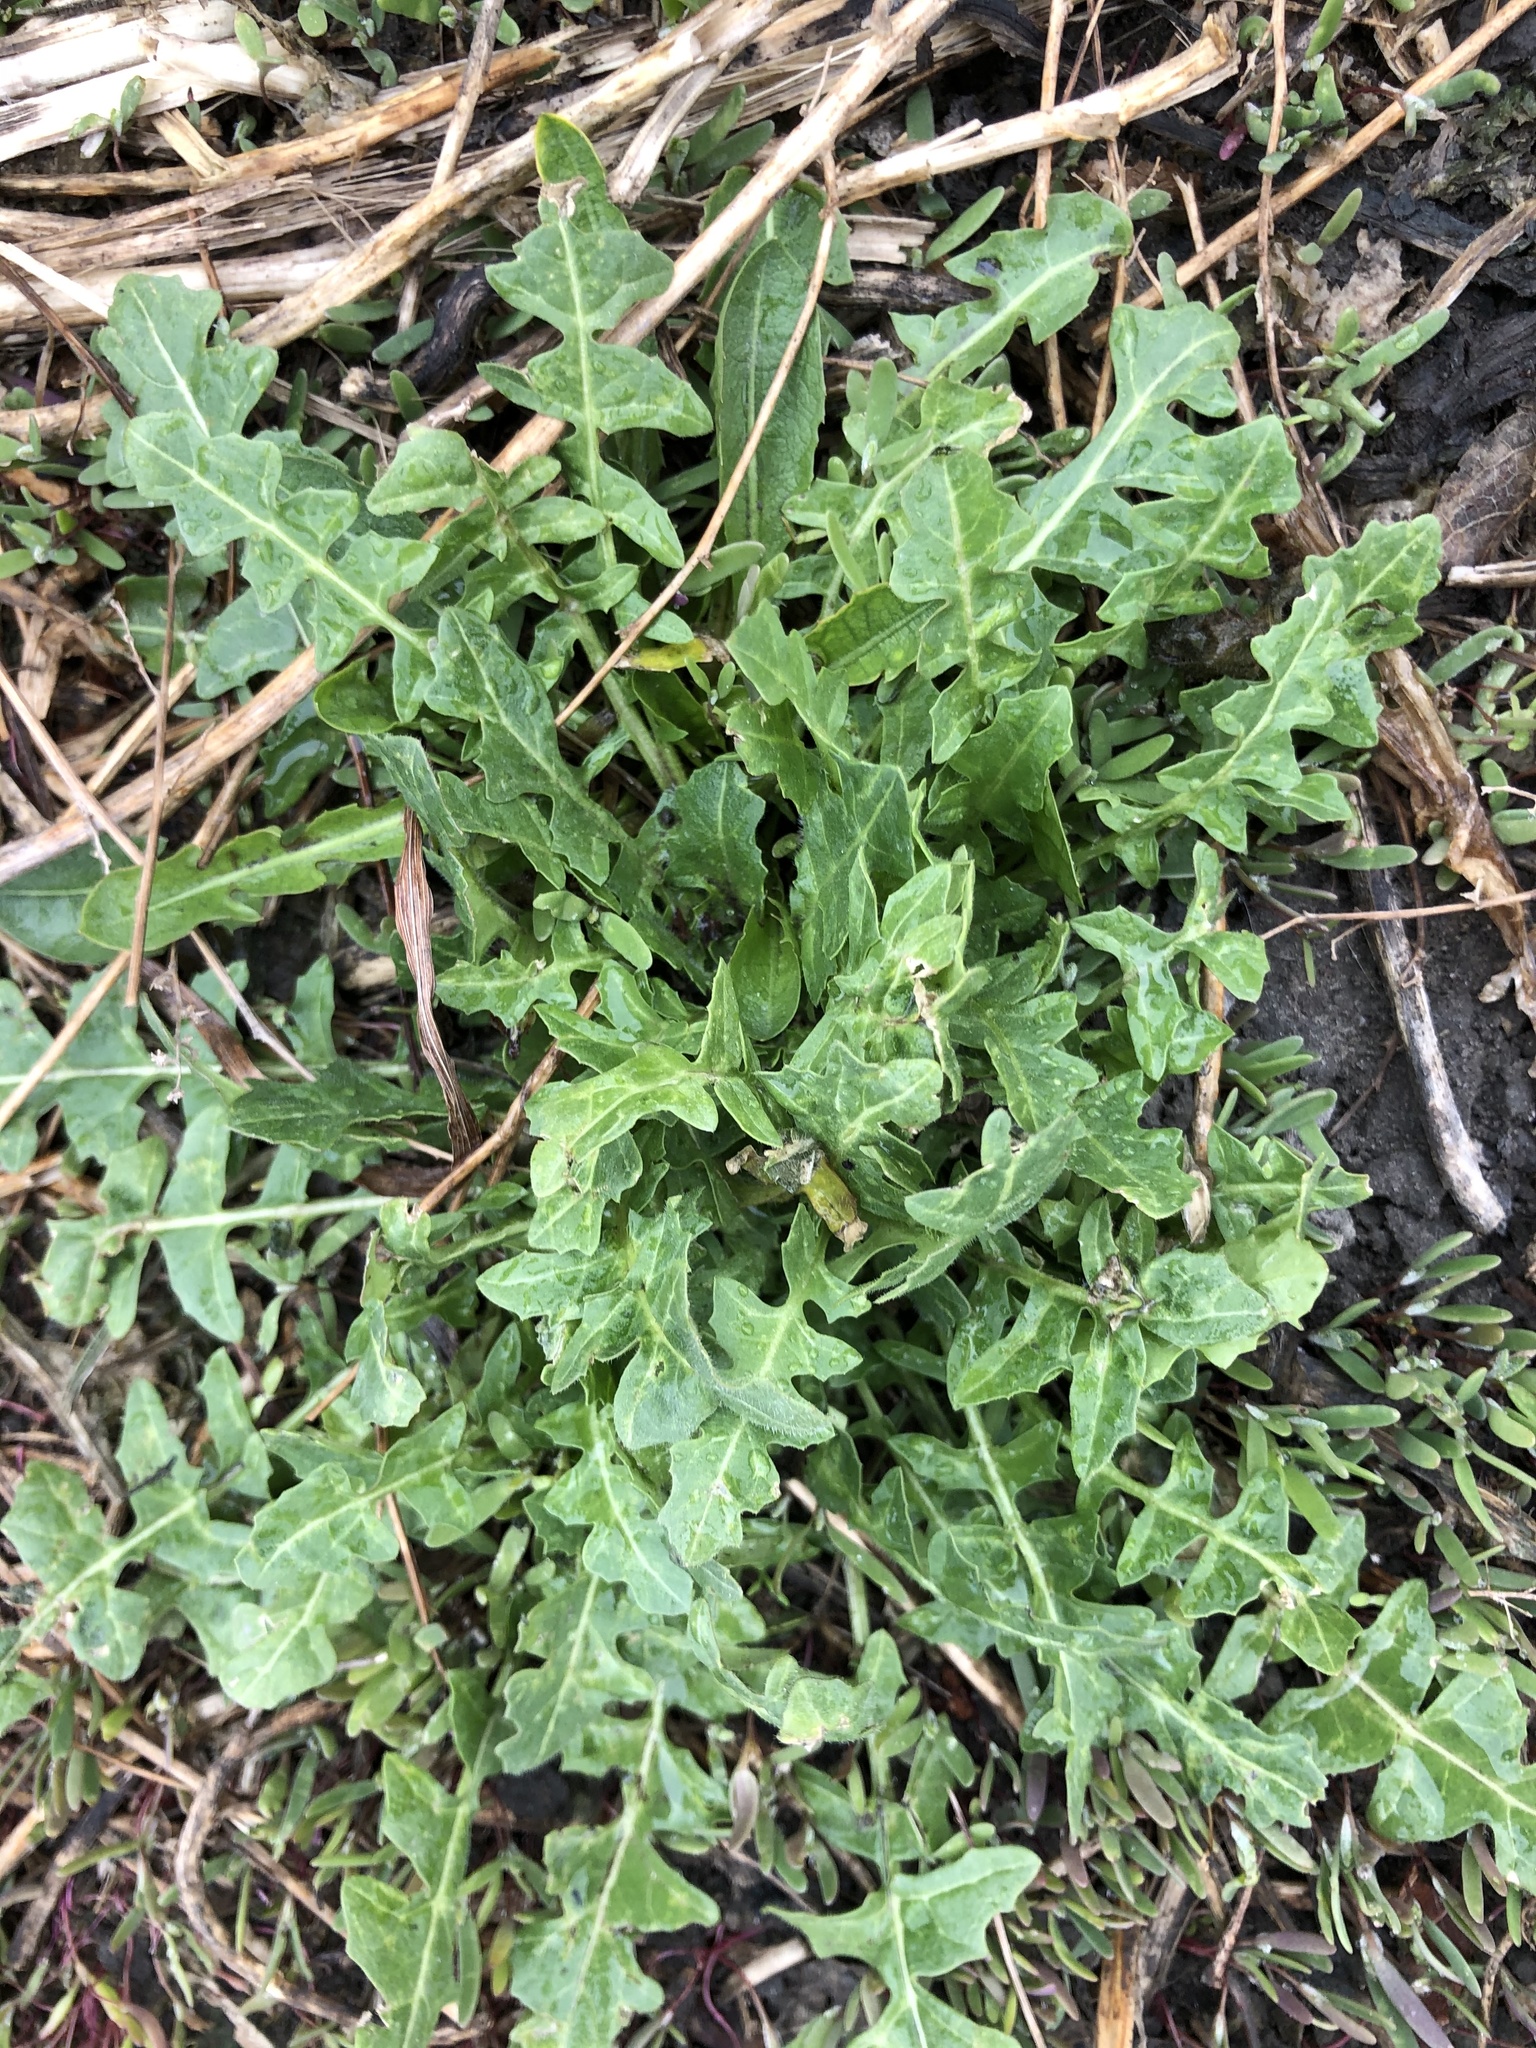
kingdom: Plantae
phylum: Tracheophyta
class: Magnoliopsida
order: Brassicales
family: Brassicaceae
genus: Sisymbrium
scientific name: Sisymbrium loeselii
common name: False london-rocket
